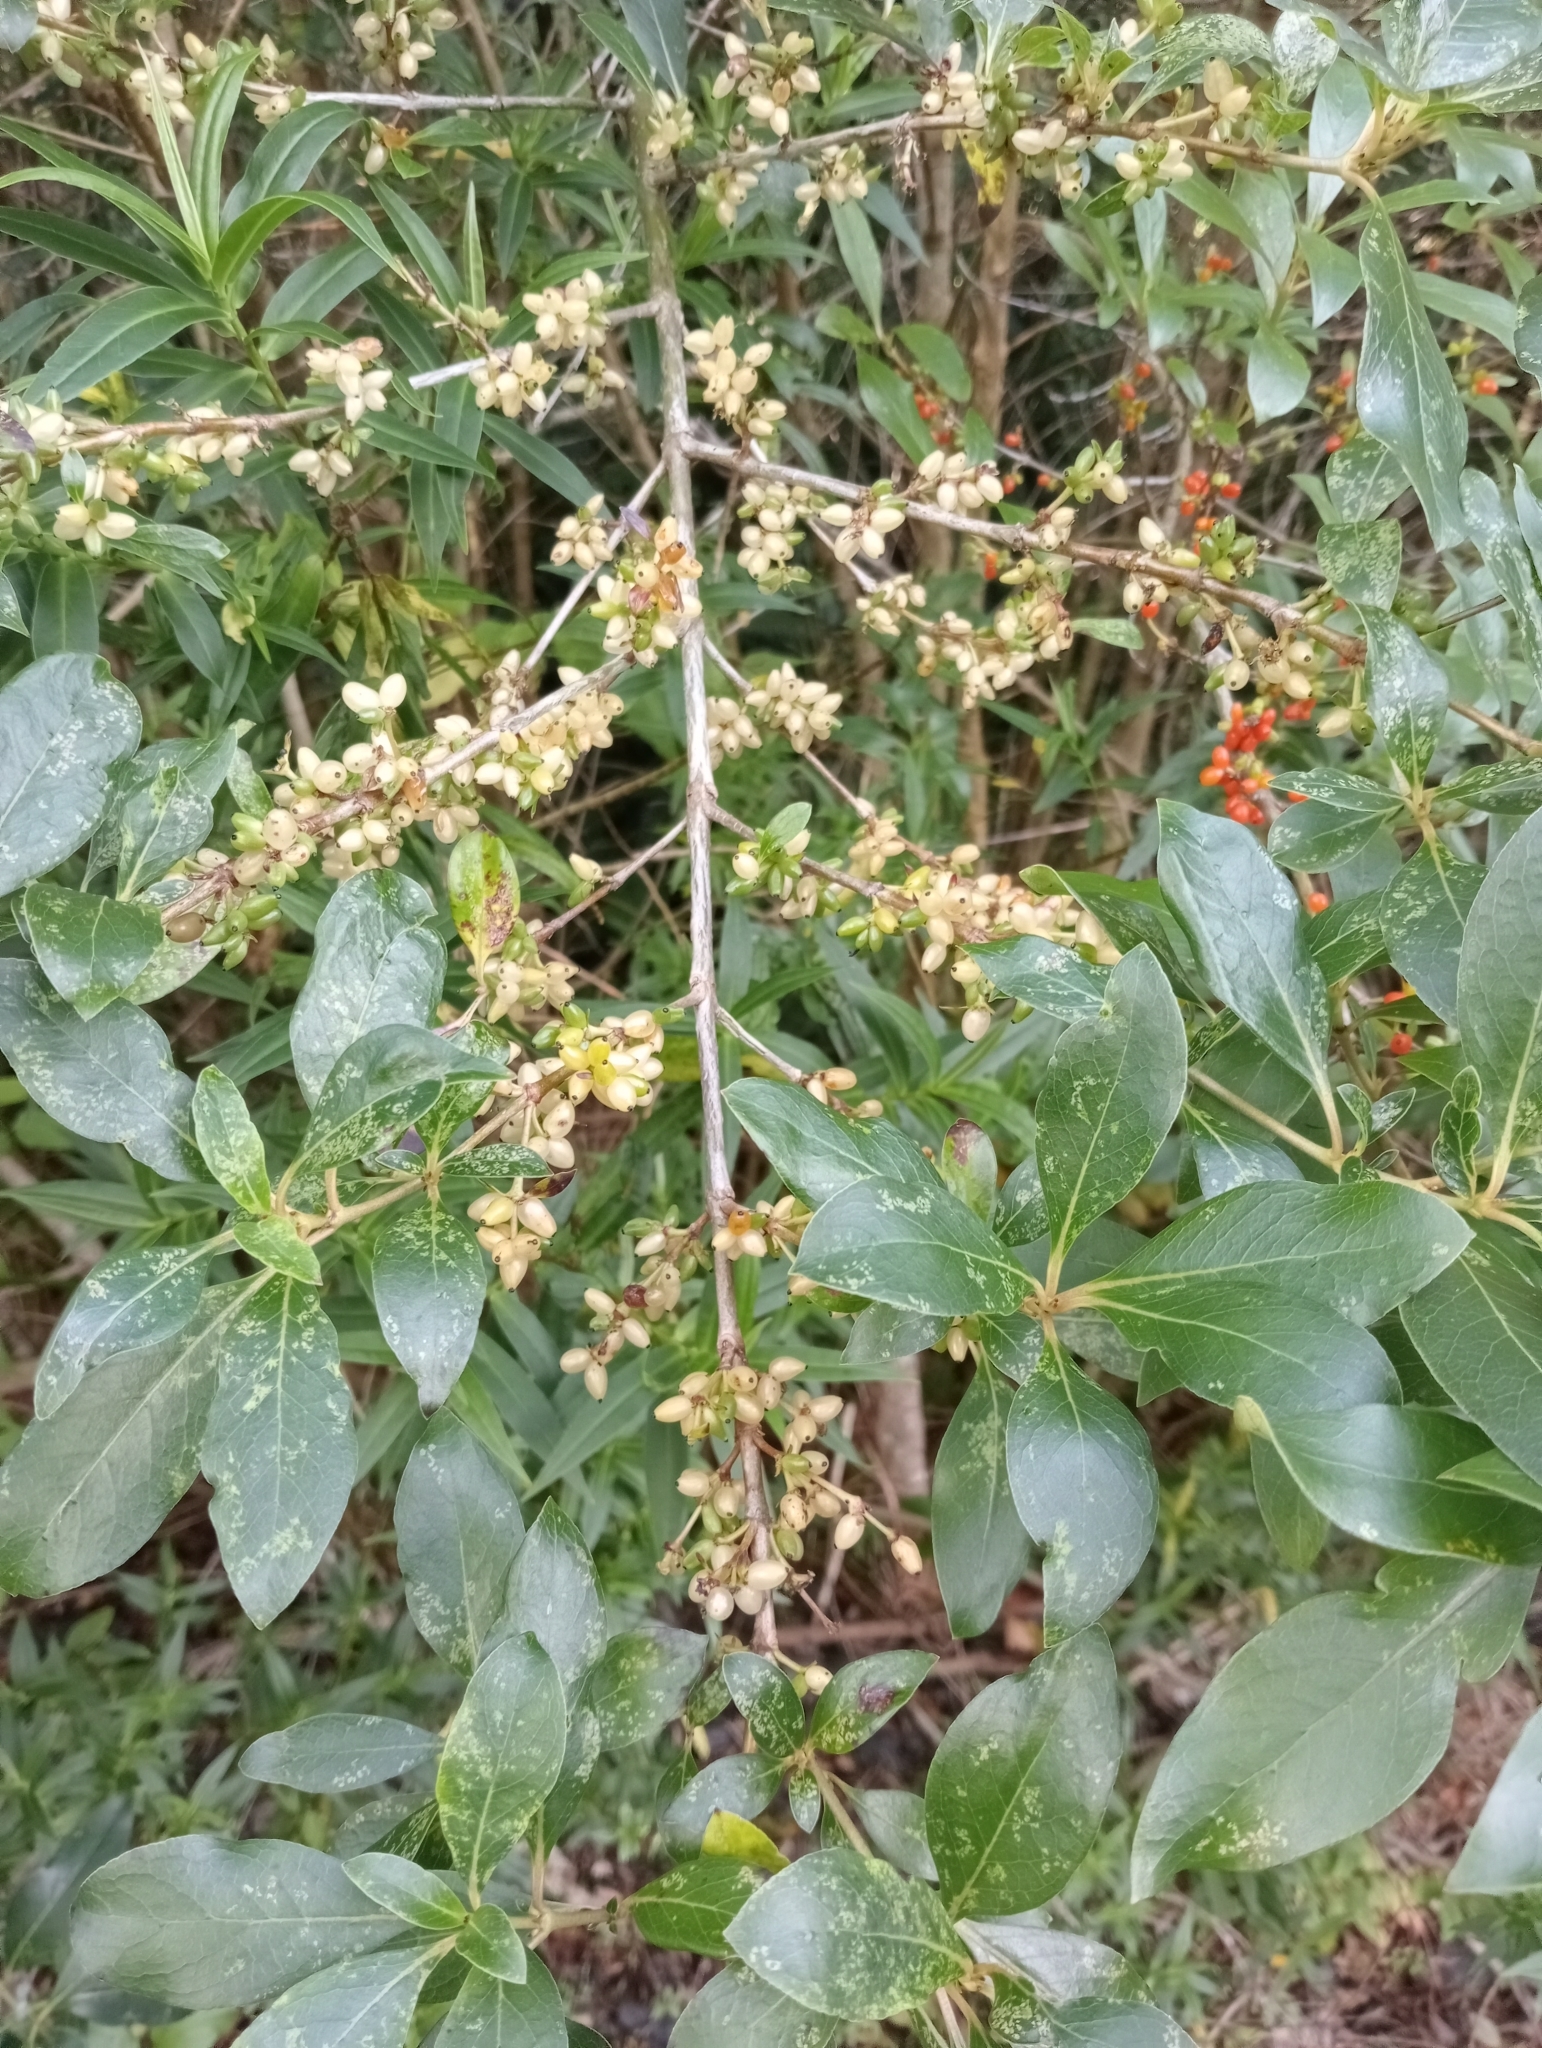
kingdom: Plantae
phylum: Tracheophyta
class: Magnoliopsida
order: Gentianales
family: Rubiaceae
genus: Coprosma
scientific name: Coprosma robusta
